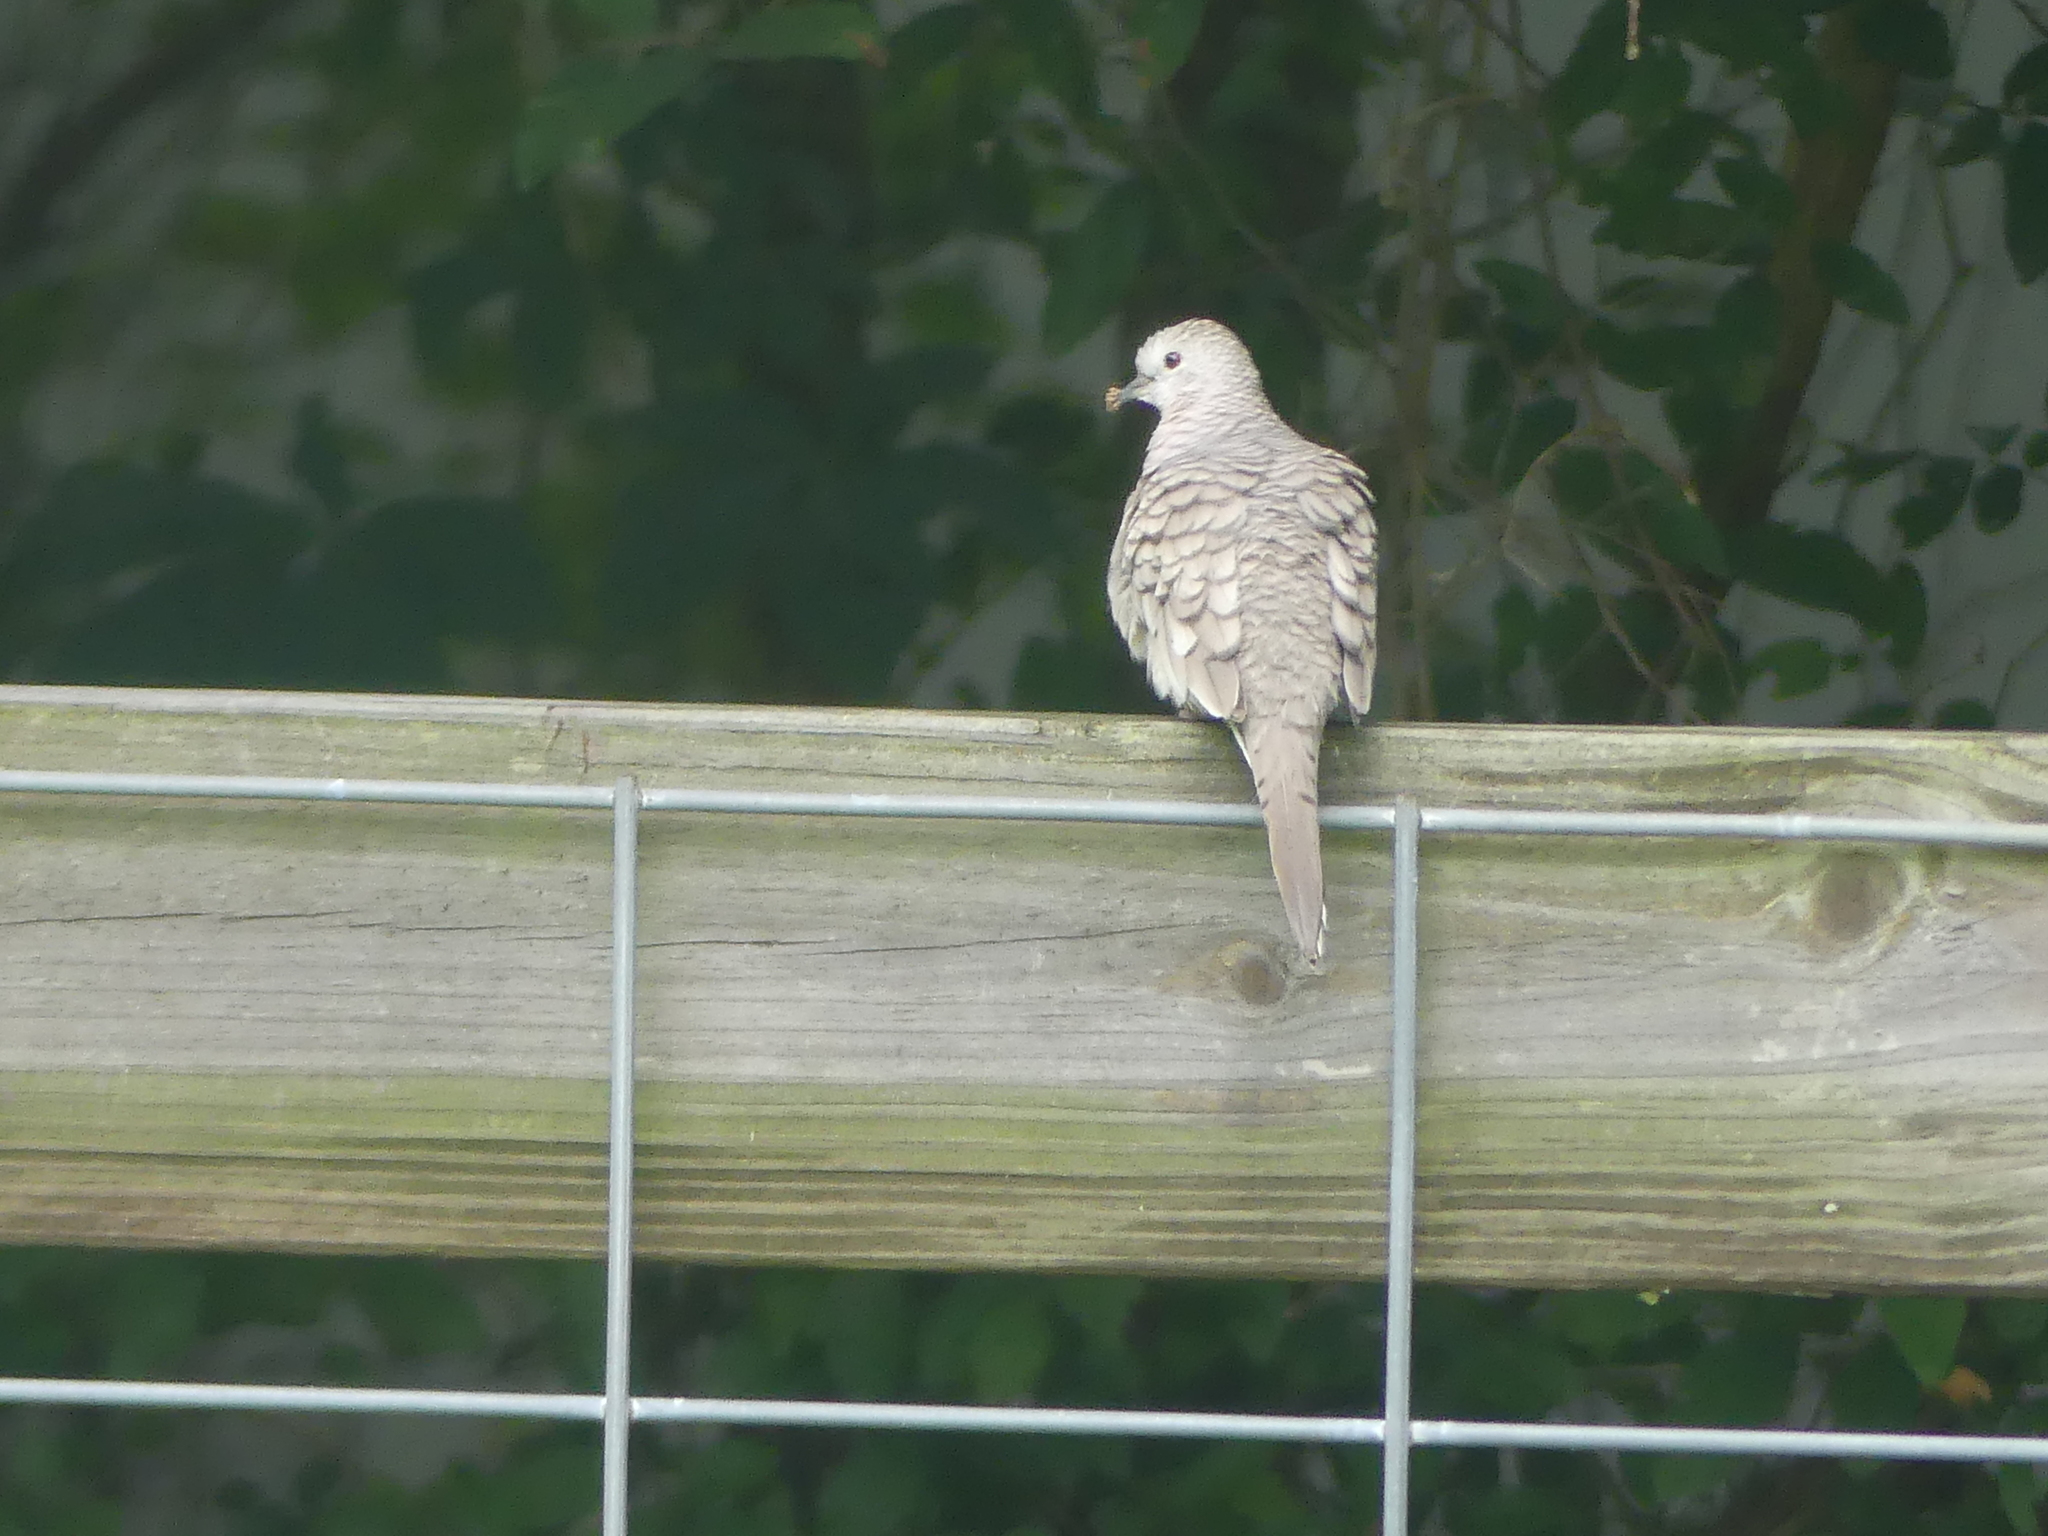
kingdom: Animalia
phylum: Chordata
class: Aves
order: Columbiformes
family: Columbidae
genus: Columbina
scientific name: Columbina inca
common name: Inca dove
